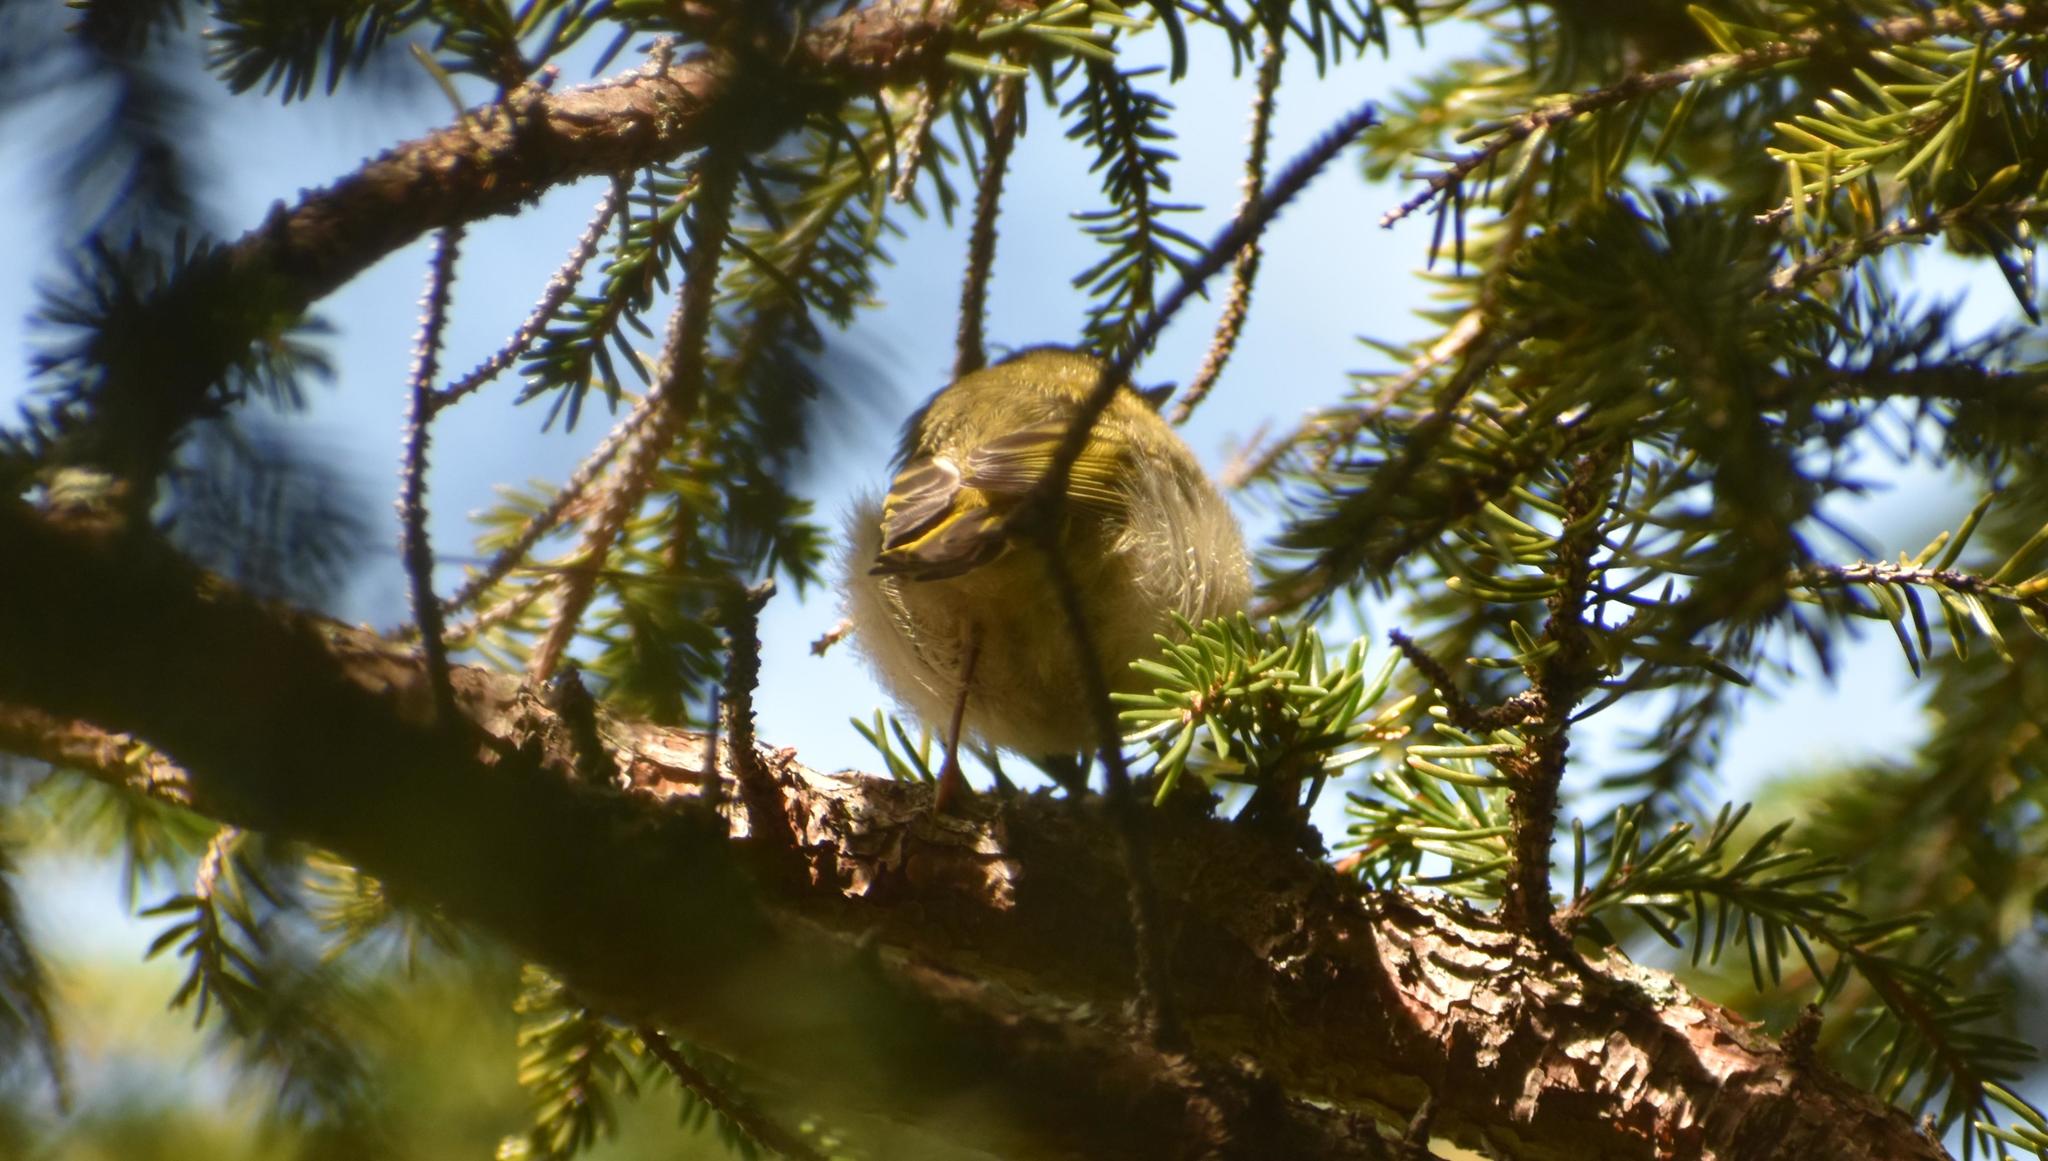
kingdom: Animalia
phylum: Chordata
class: Aves
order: Passeriformes
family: Regulidae
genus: Regulus
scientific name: Regulus regulus
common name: Goldcrest
